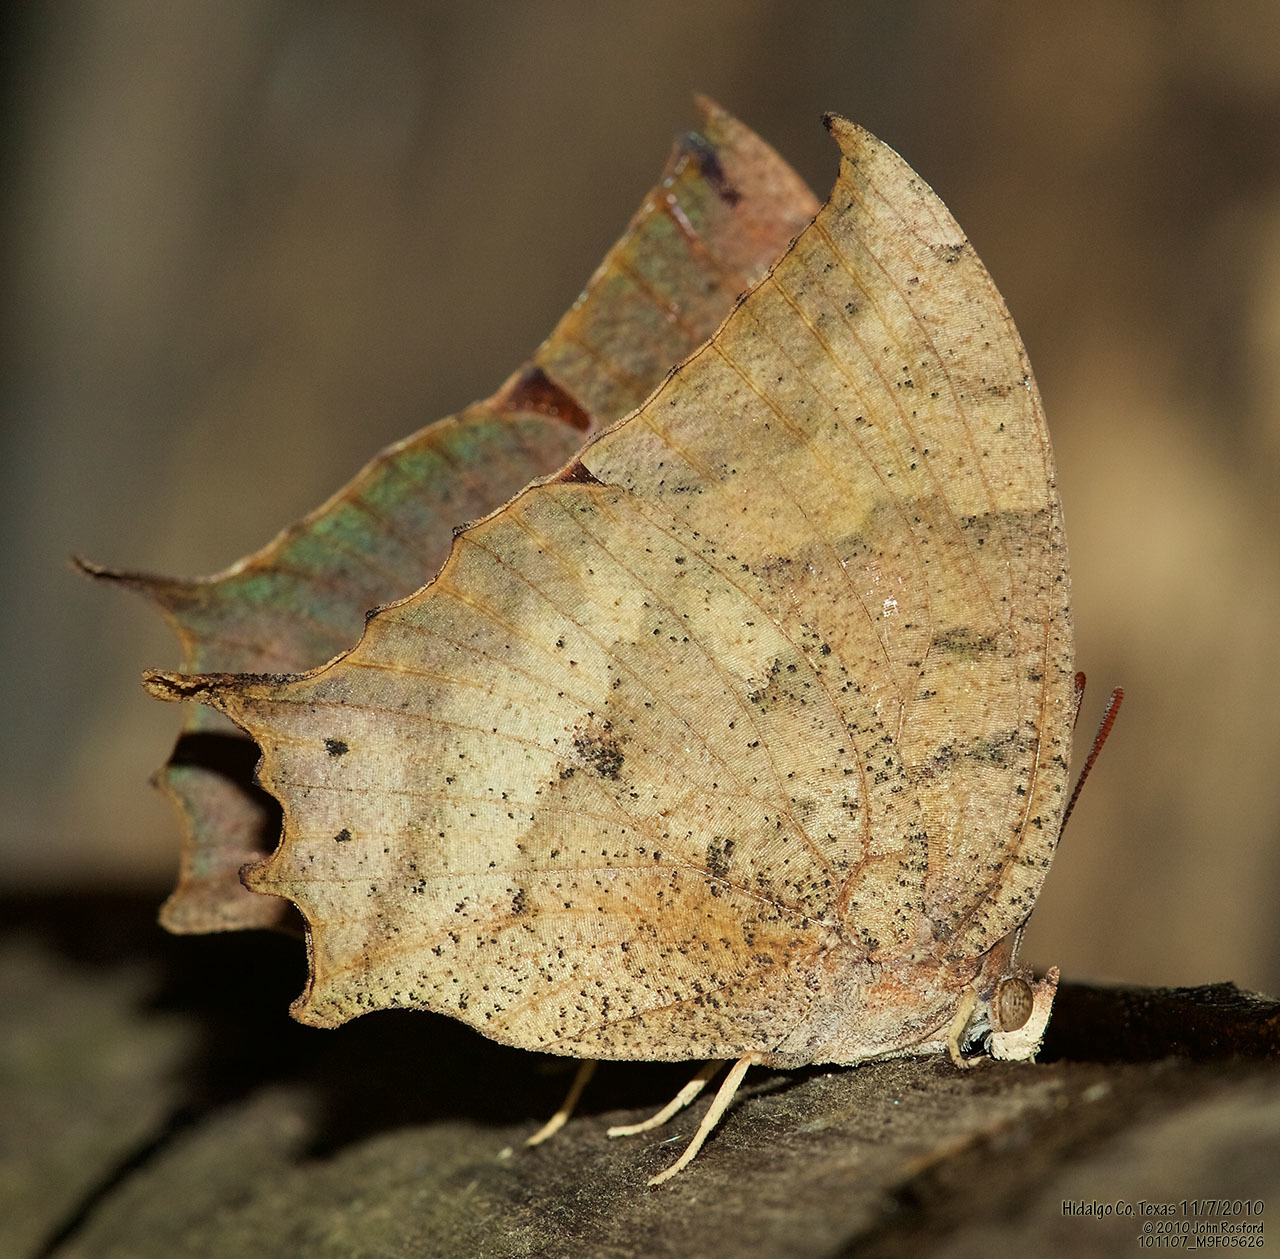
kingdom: Animalia
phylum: Arthropoda
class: Insecta
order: Lepidoptera
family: Nymphalidae
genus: Anaea
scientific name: Anaea aidea
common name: Tropical leafwing
